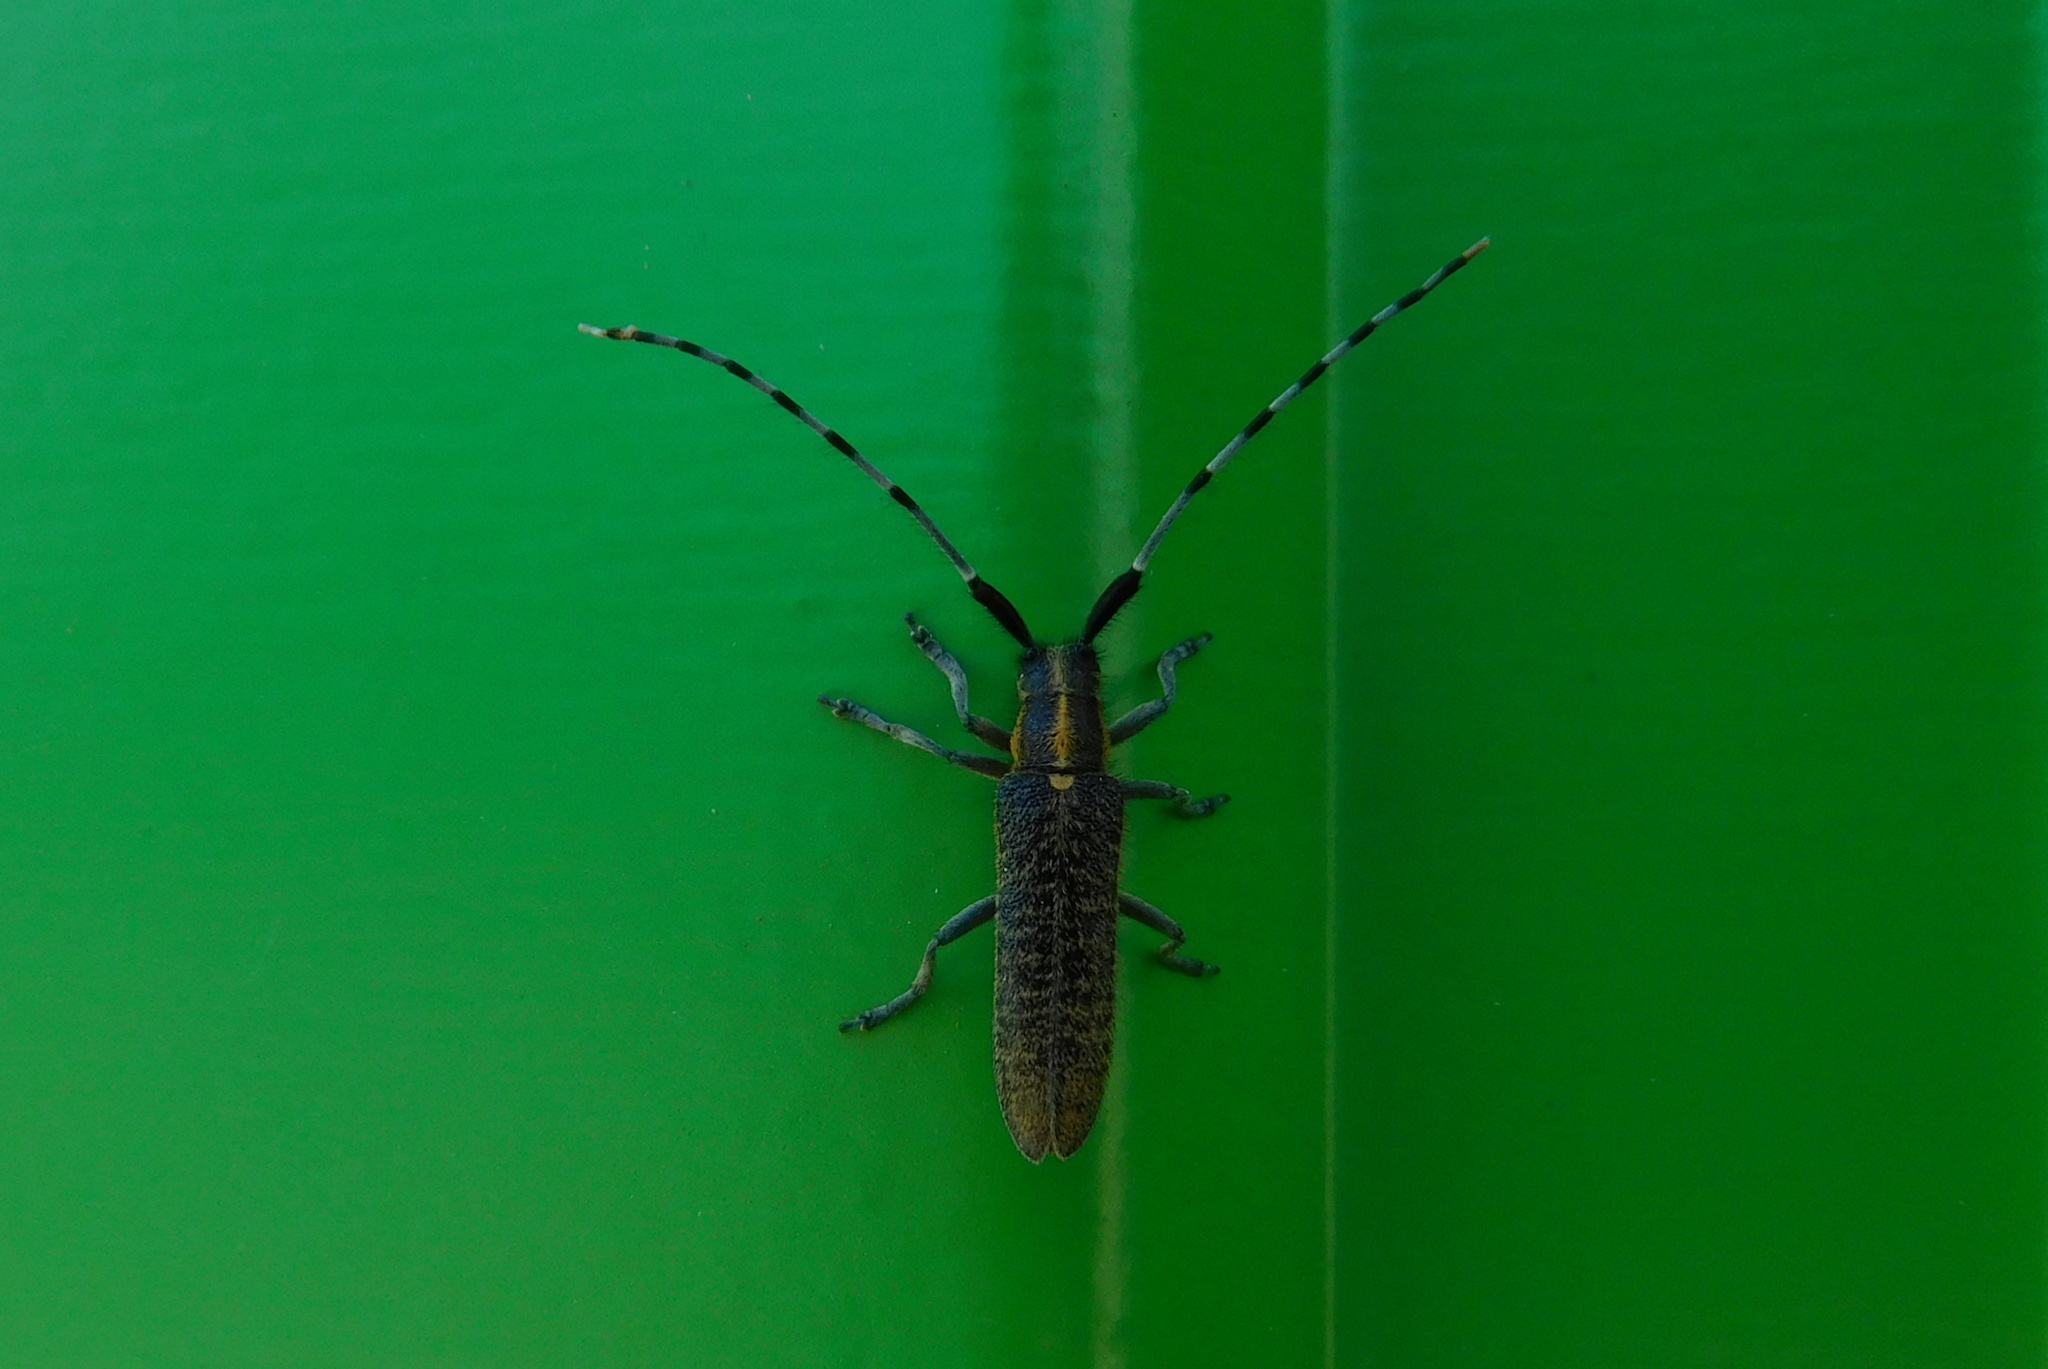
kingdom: Animalia
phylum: Arthropoda
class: Insecta
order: Coleoptera
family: Cerambycidae
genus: Agapanthia
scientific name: Agapanthia villosoviridescens
